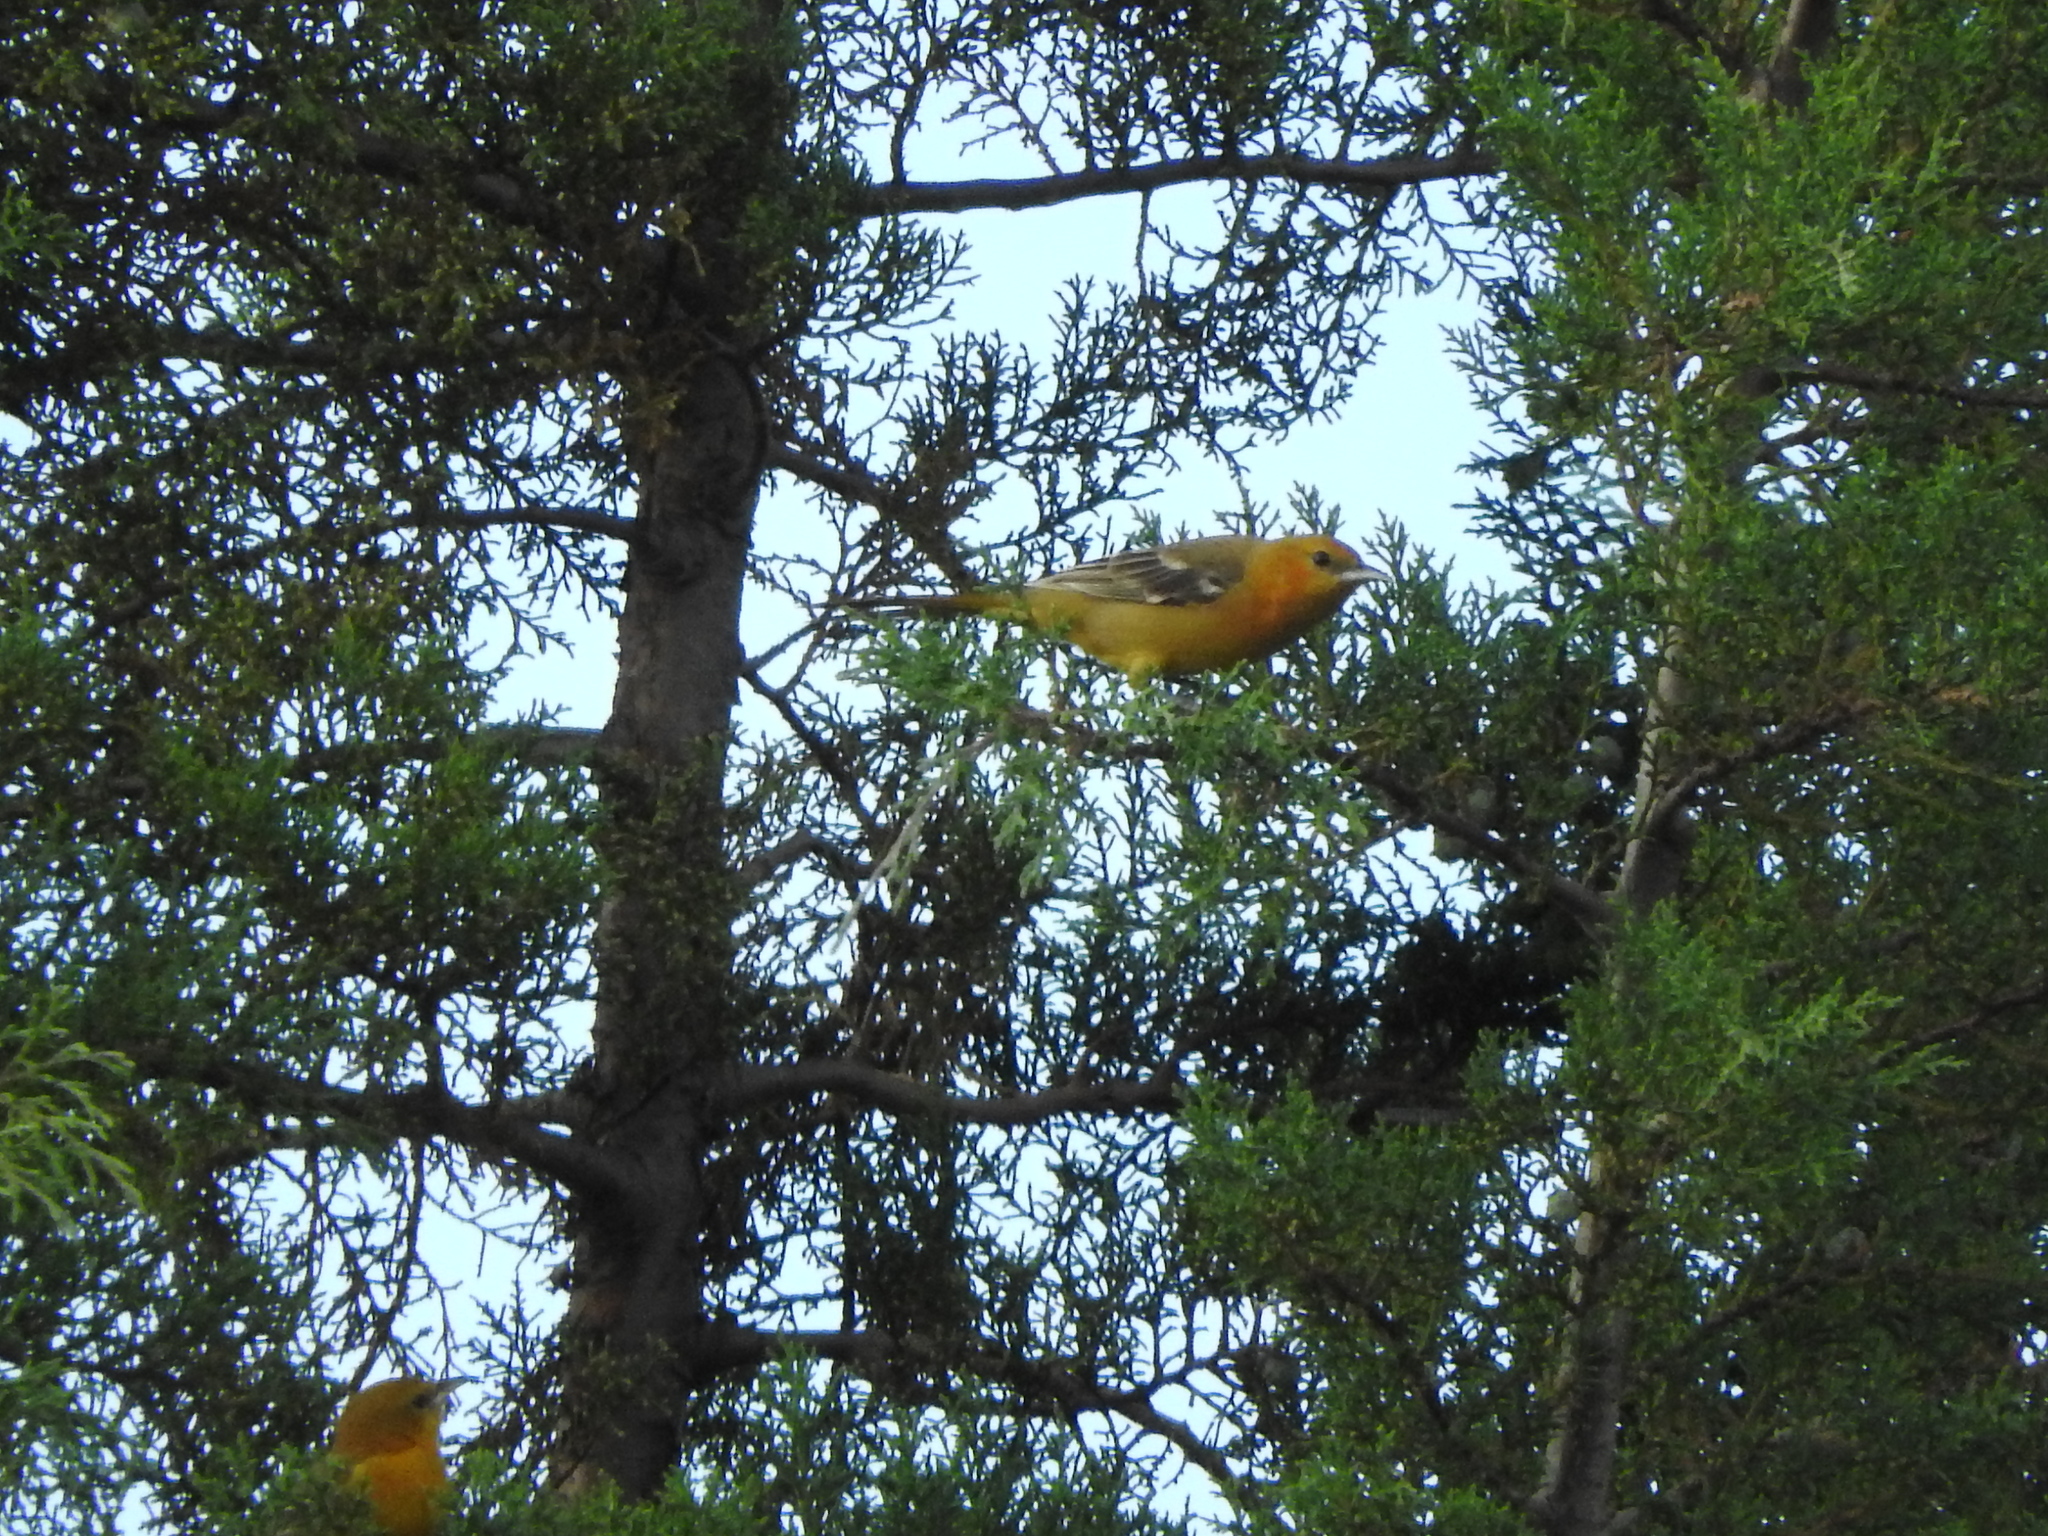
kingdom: Animalia
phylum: Chordata
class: Aves
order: Passeriformes
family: Icteridae
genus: Icterus
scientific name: Icterus cucullatus
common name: Hooded oriole
